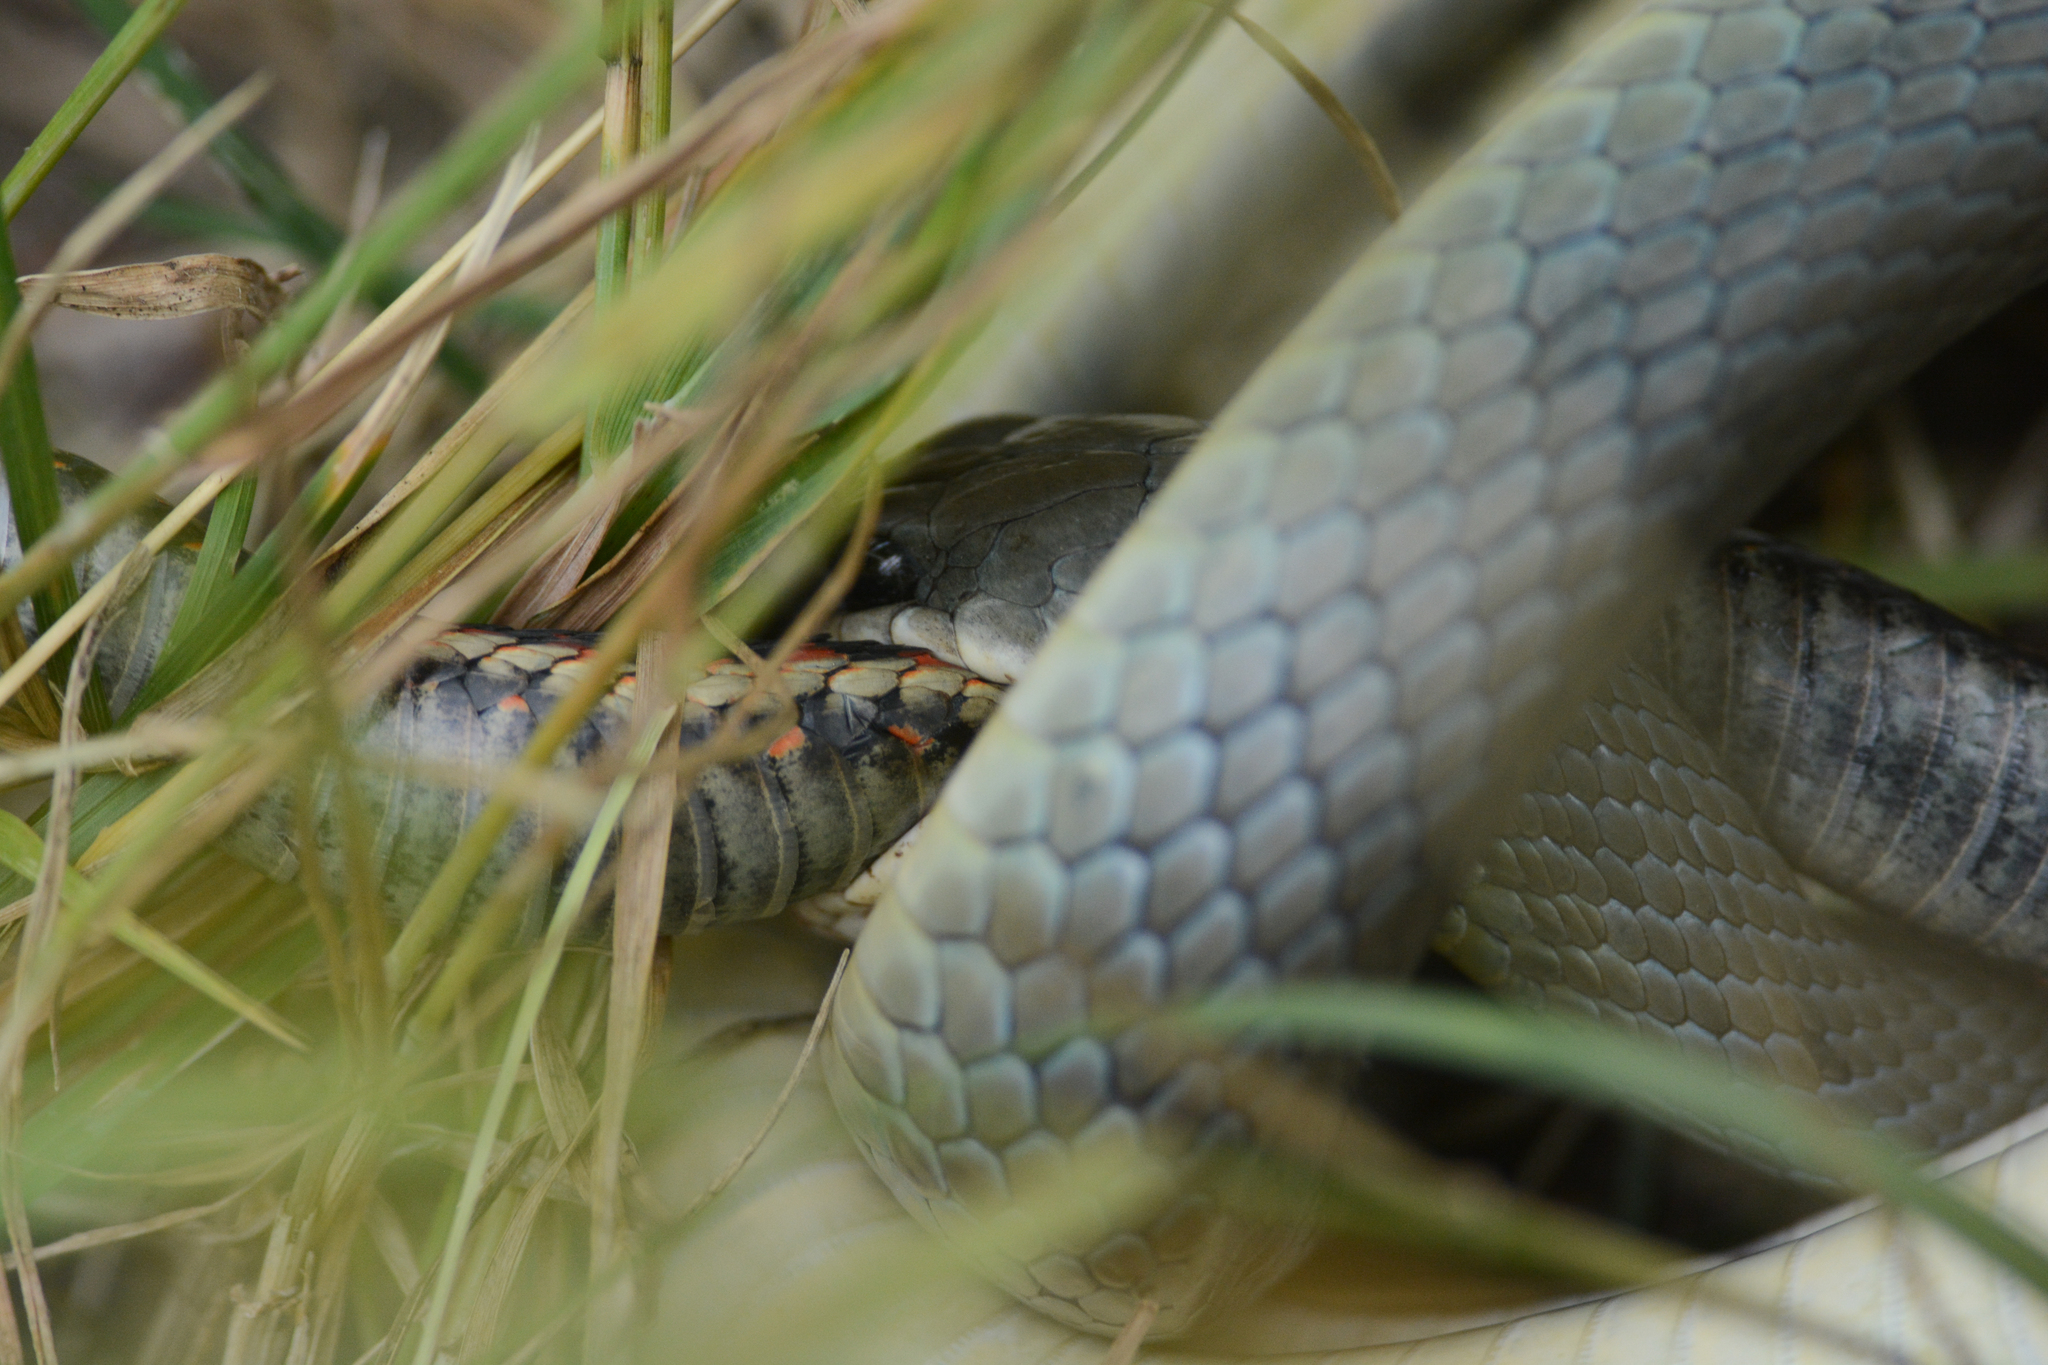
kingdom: Animalia
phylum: Chordata
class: Squamata
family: Colubridae
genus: Thamnophis
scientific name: Thamnophis sirtalis
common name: Common garter snake
